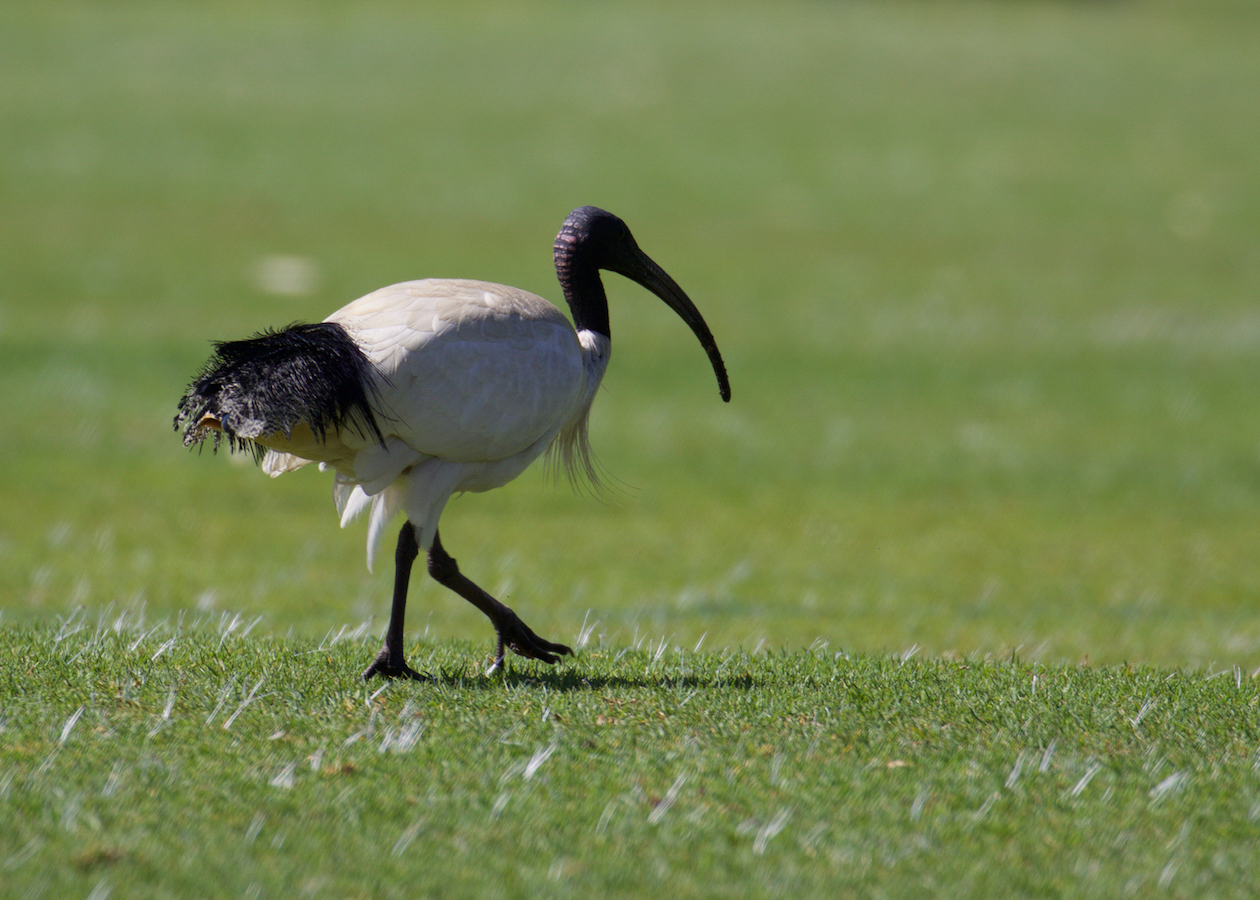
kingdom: Animalia
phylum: Chordata
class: Aves
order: Pelecaniformes
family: Threskiornithidae
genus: Threskiornis
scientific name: Threskiornis molucca
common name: Australian white ibis
